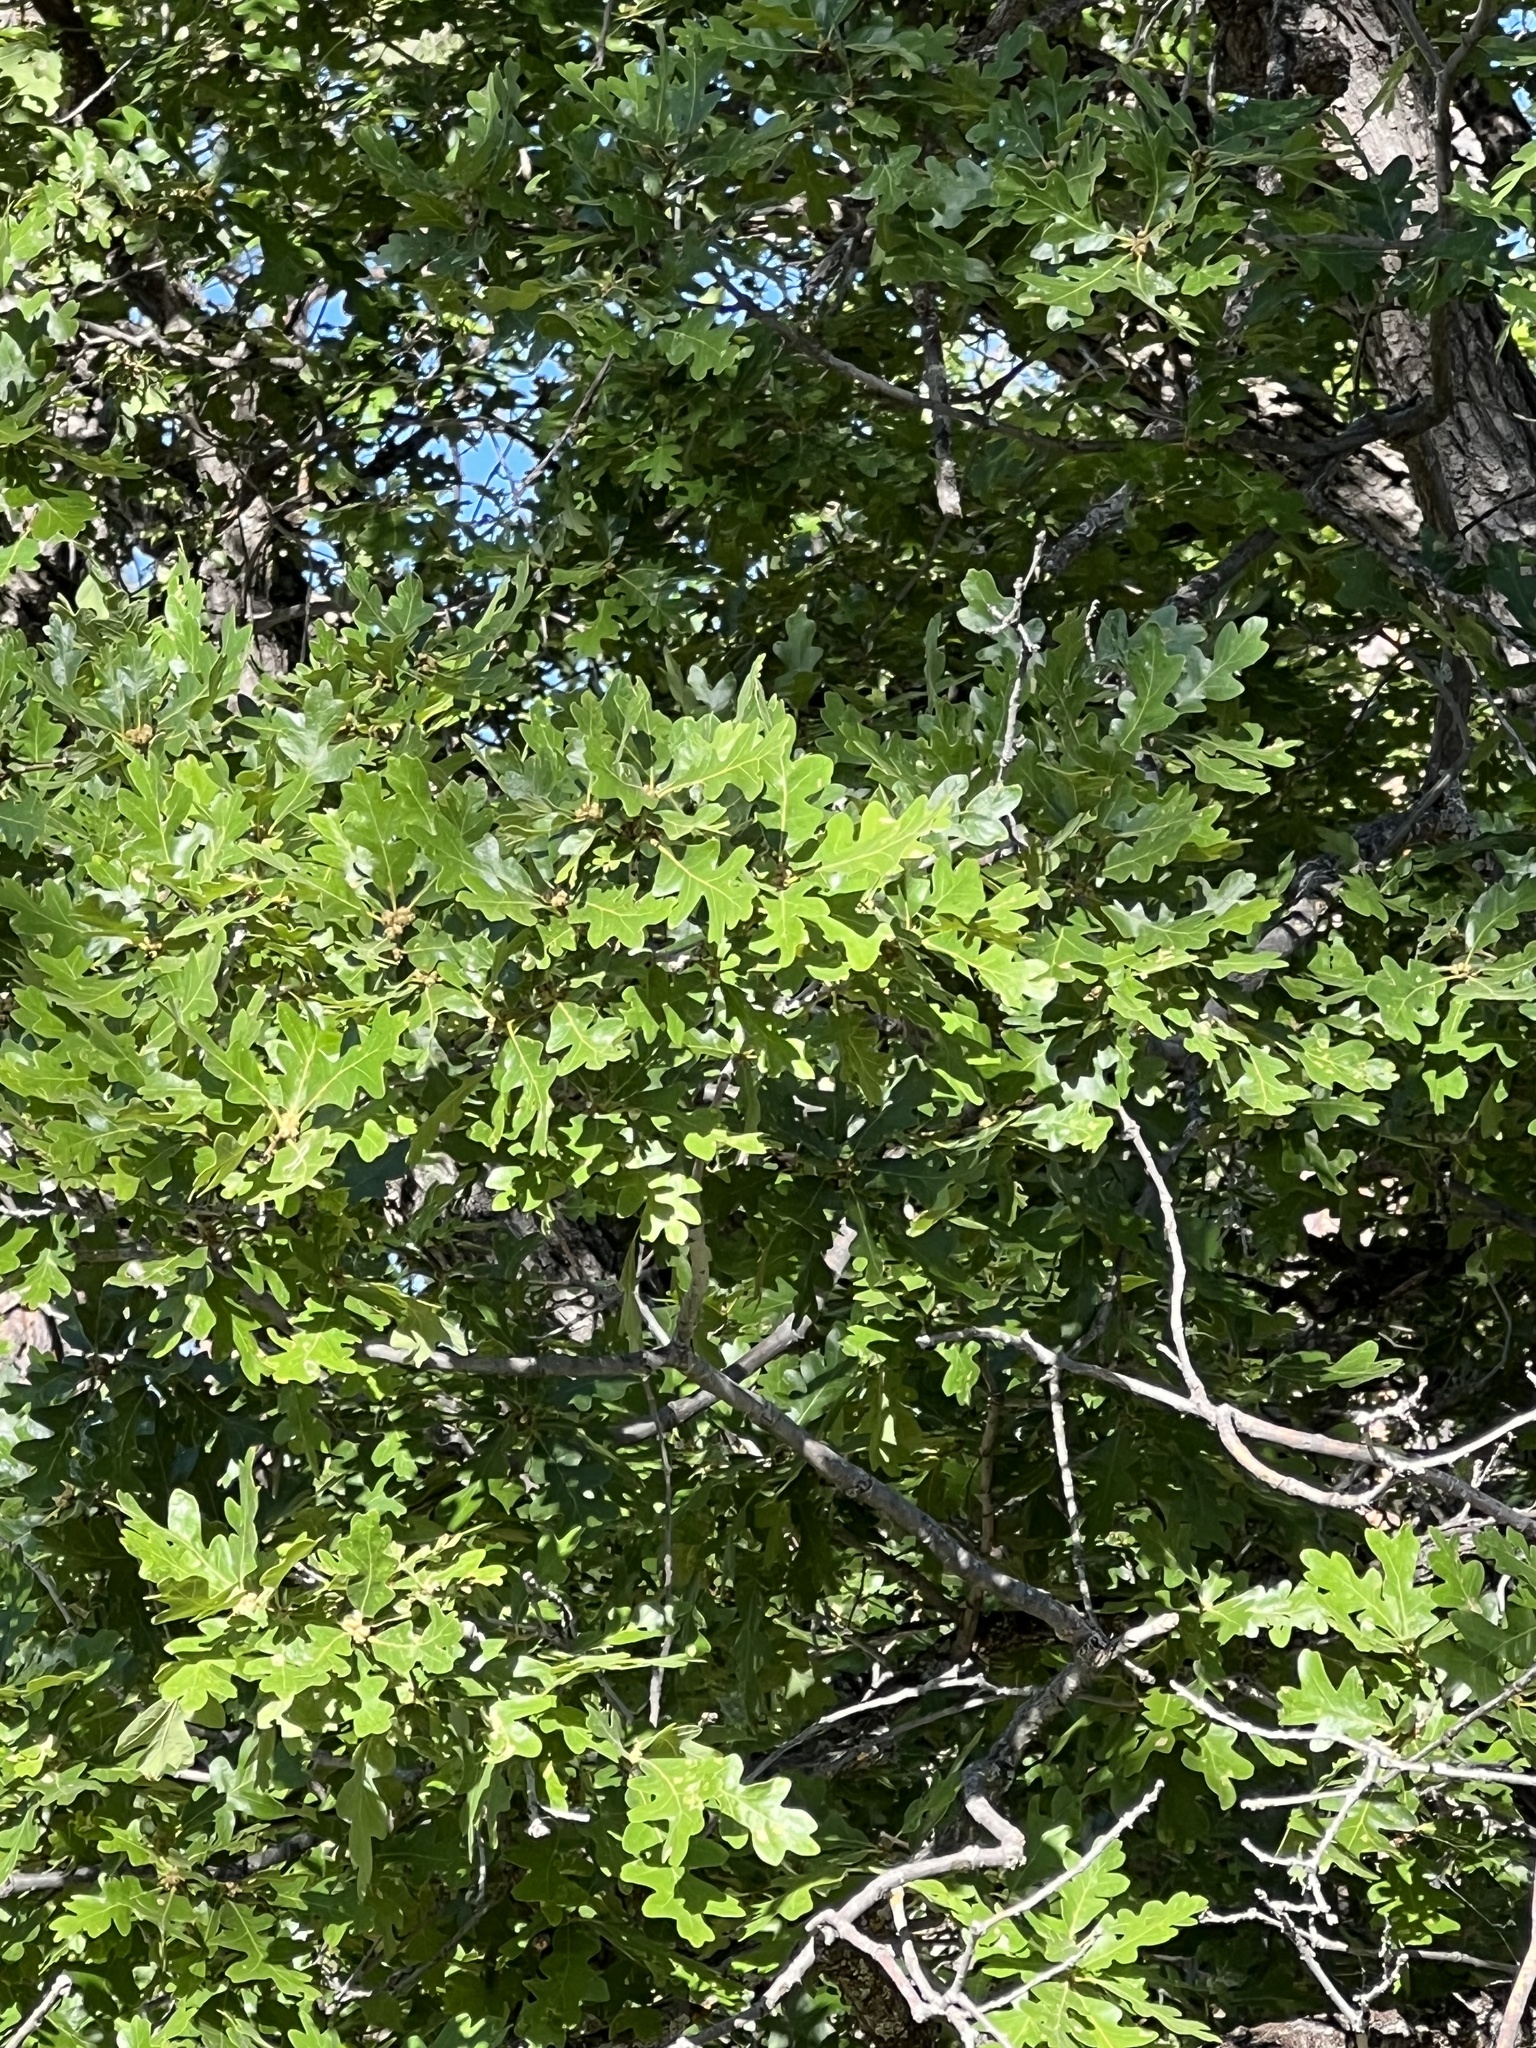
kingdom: Plantae
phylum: Tracheophyta
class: Magnoliopsida
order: Fagales
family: Fagaceae
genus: Quercus
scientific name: Quercus gambelii
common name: Gambel oak
